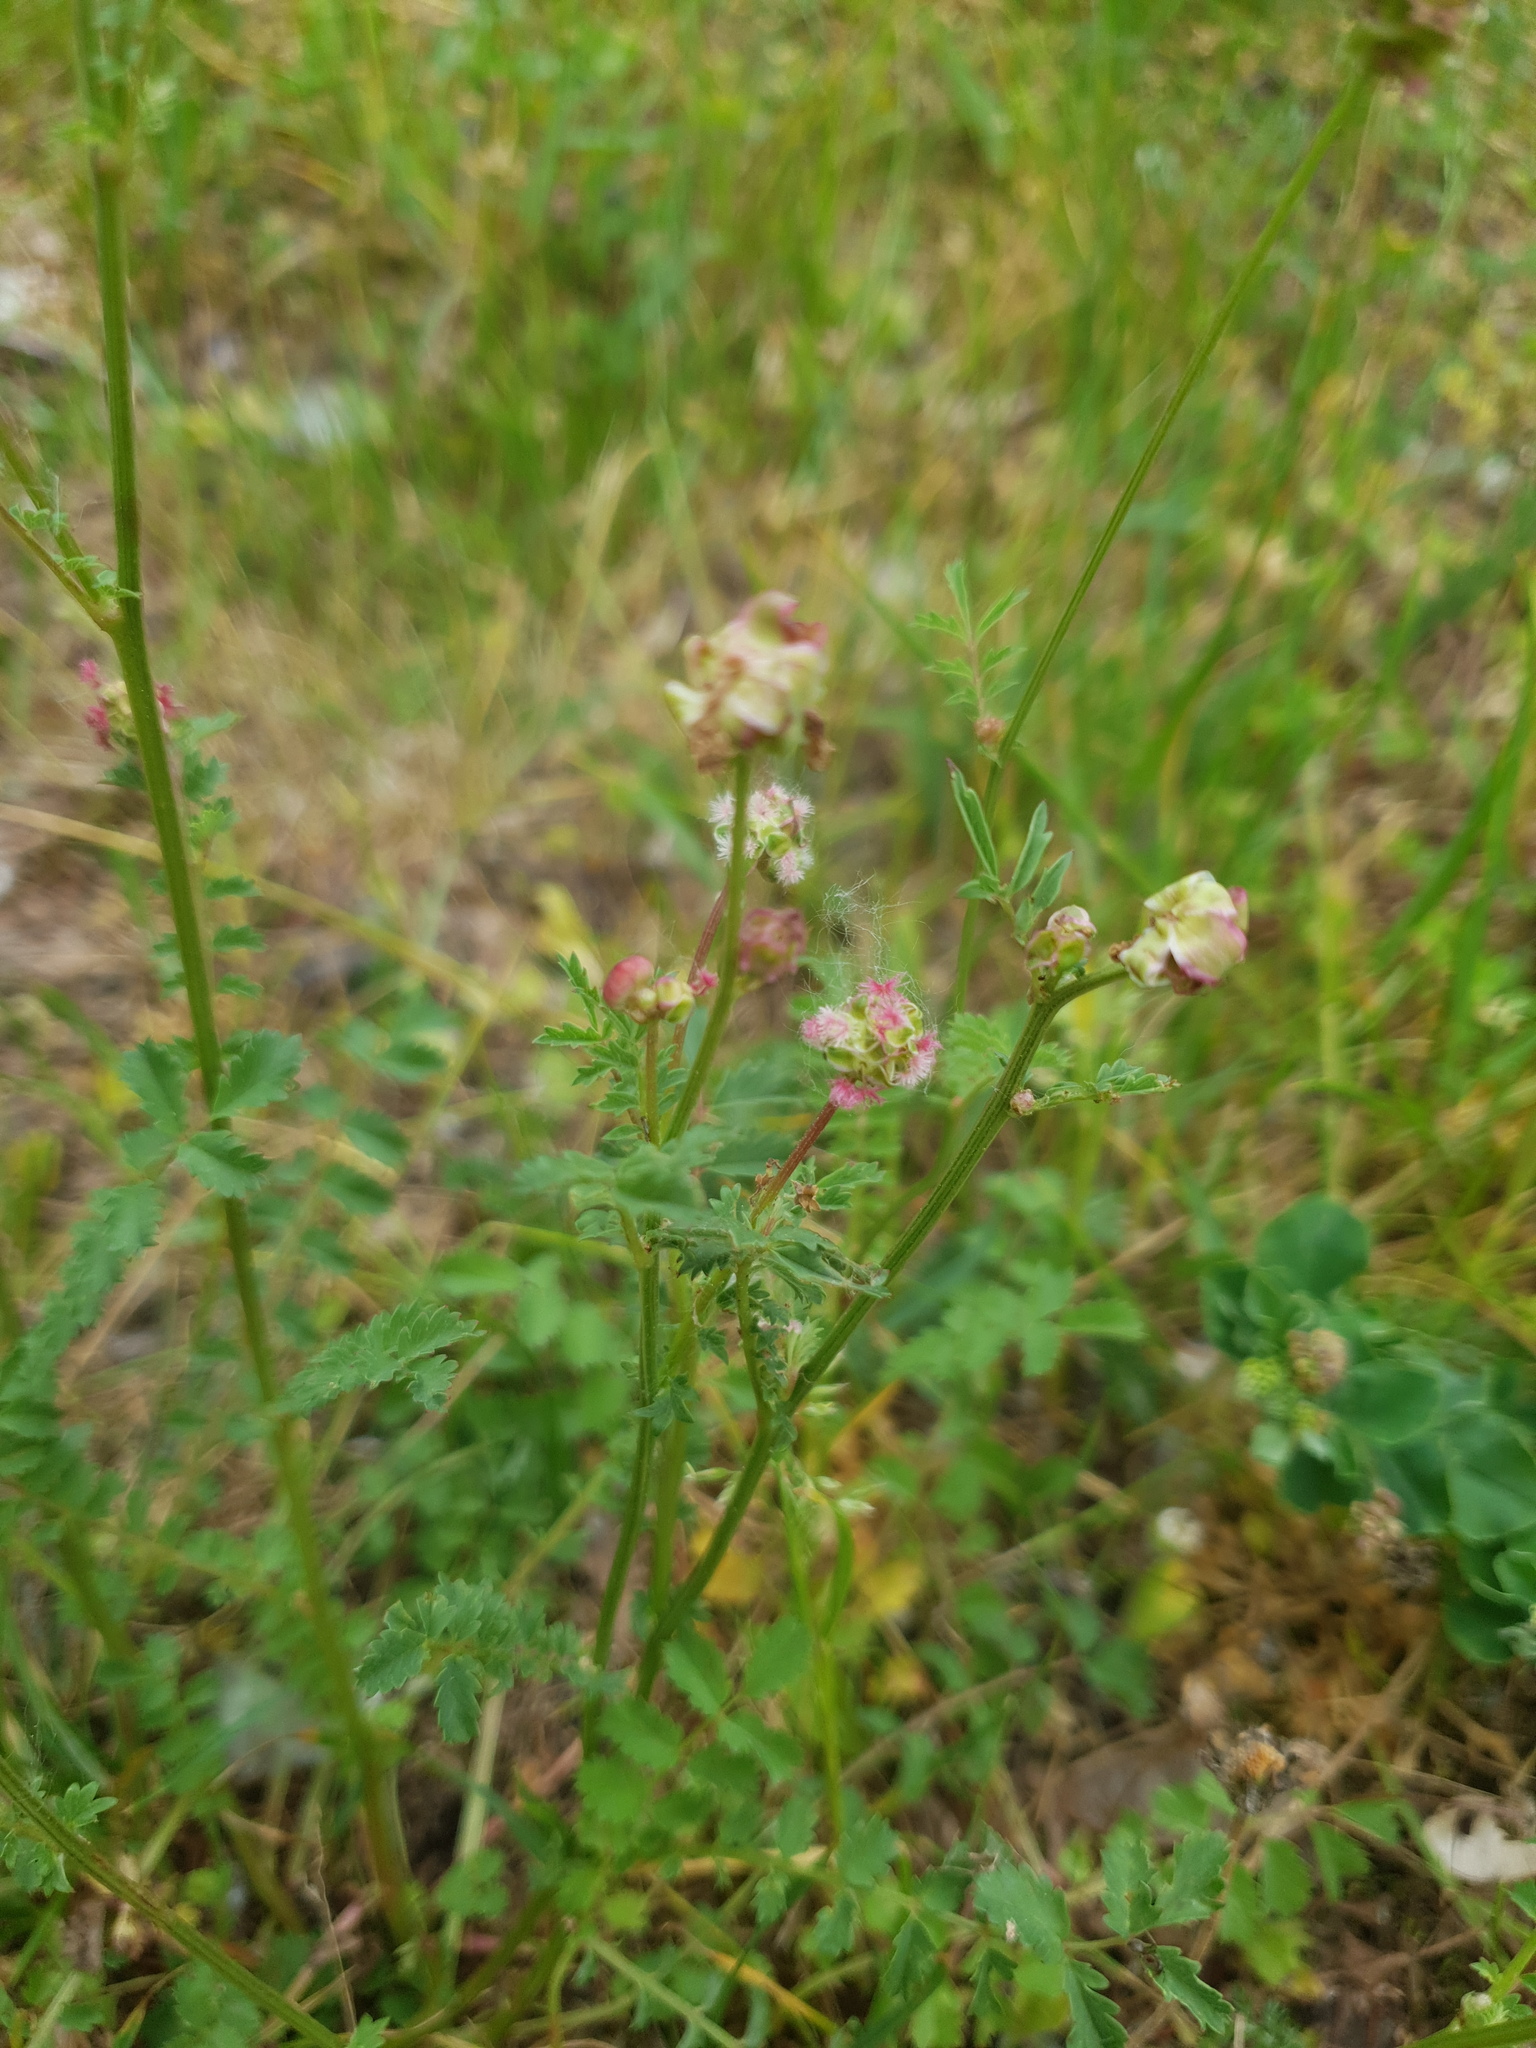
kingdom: Plantae
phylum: Tracheophyta
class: Magnoliopsida
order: Rosales
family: Rosaceae
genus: Poterium
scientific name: Poterium sanguisorba
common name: Salad burnet
